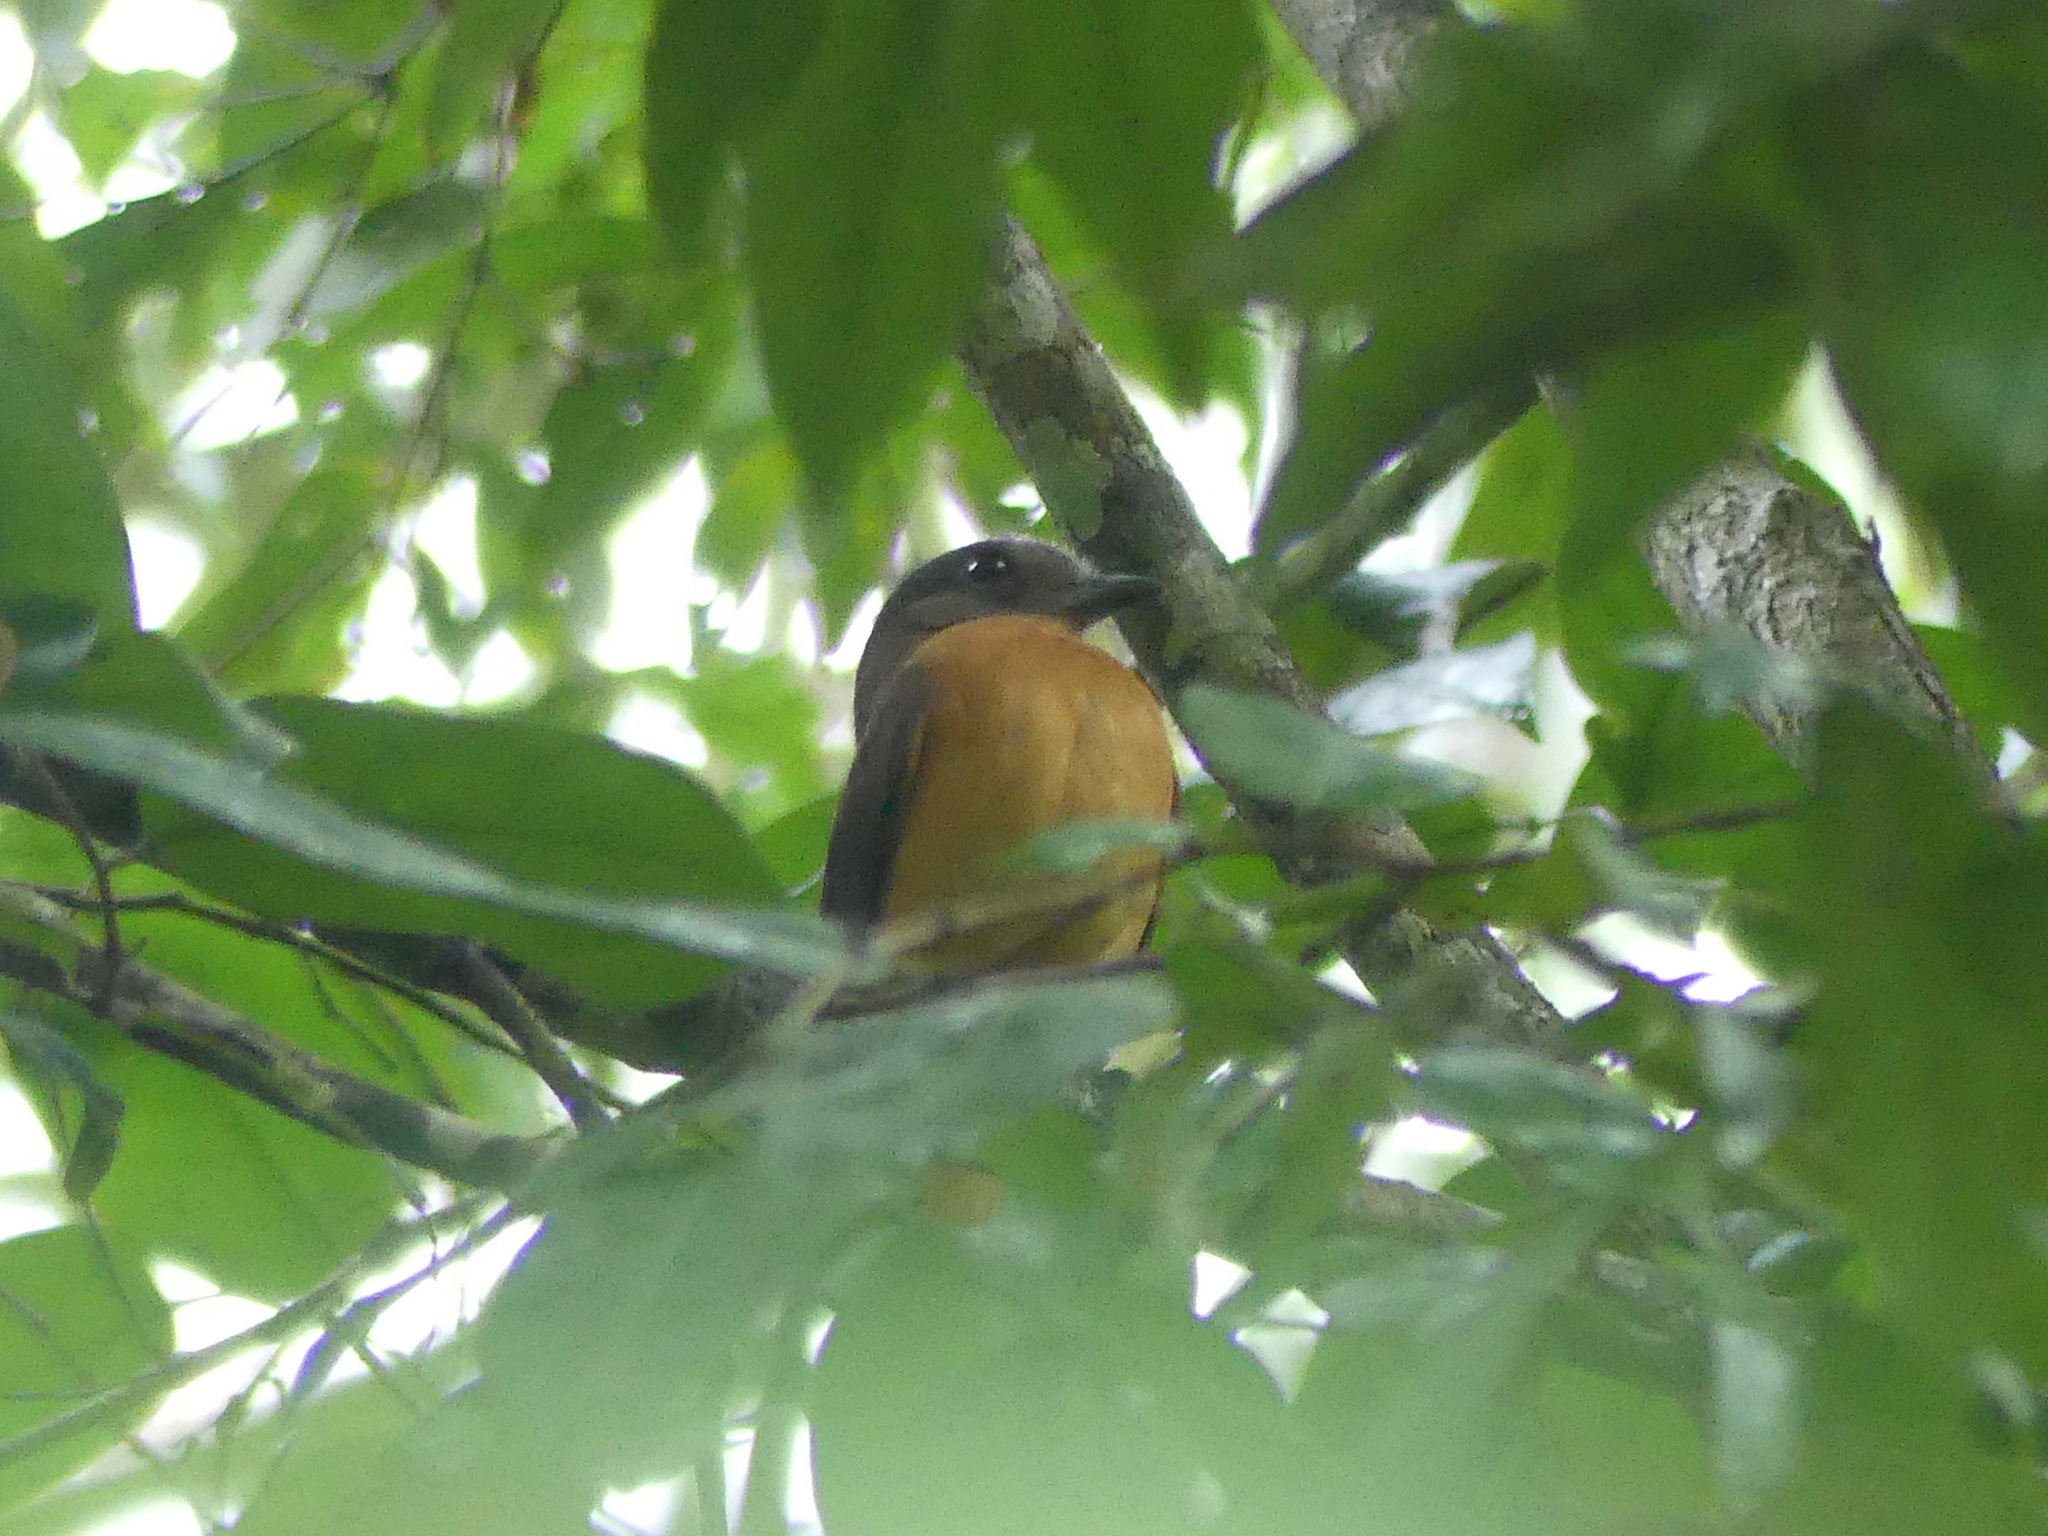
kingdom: Animalia
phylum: Chordata
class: Aves
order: Passeriformes
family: Cotingidae
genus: Schiffornis
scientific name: Schiffornis major
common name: Varzea schiffornis
